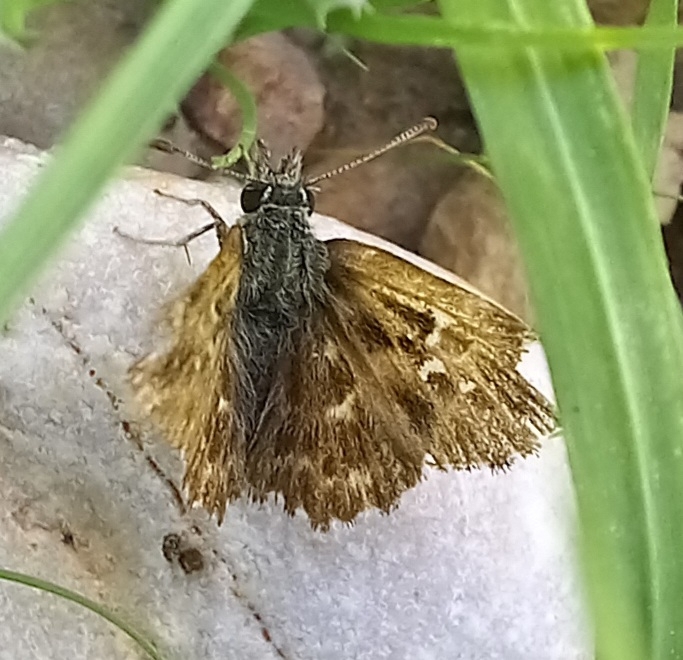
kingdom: Animalia
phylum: Arthropoda
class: Insecta
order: Lepidoptera
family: Hesperiidae
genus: Carcharodus
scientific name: Carcharodus alceae
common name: Mallow skipper
